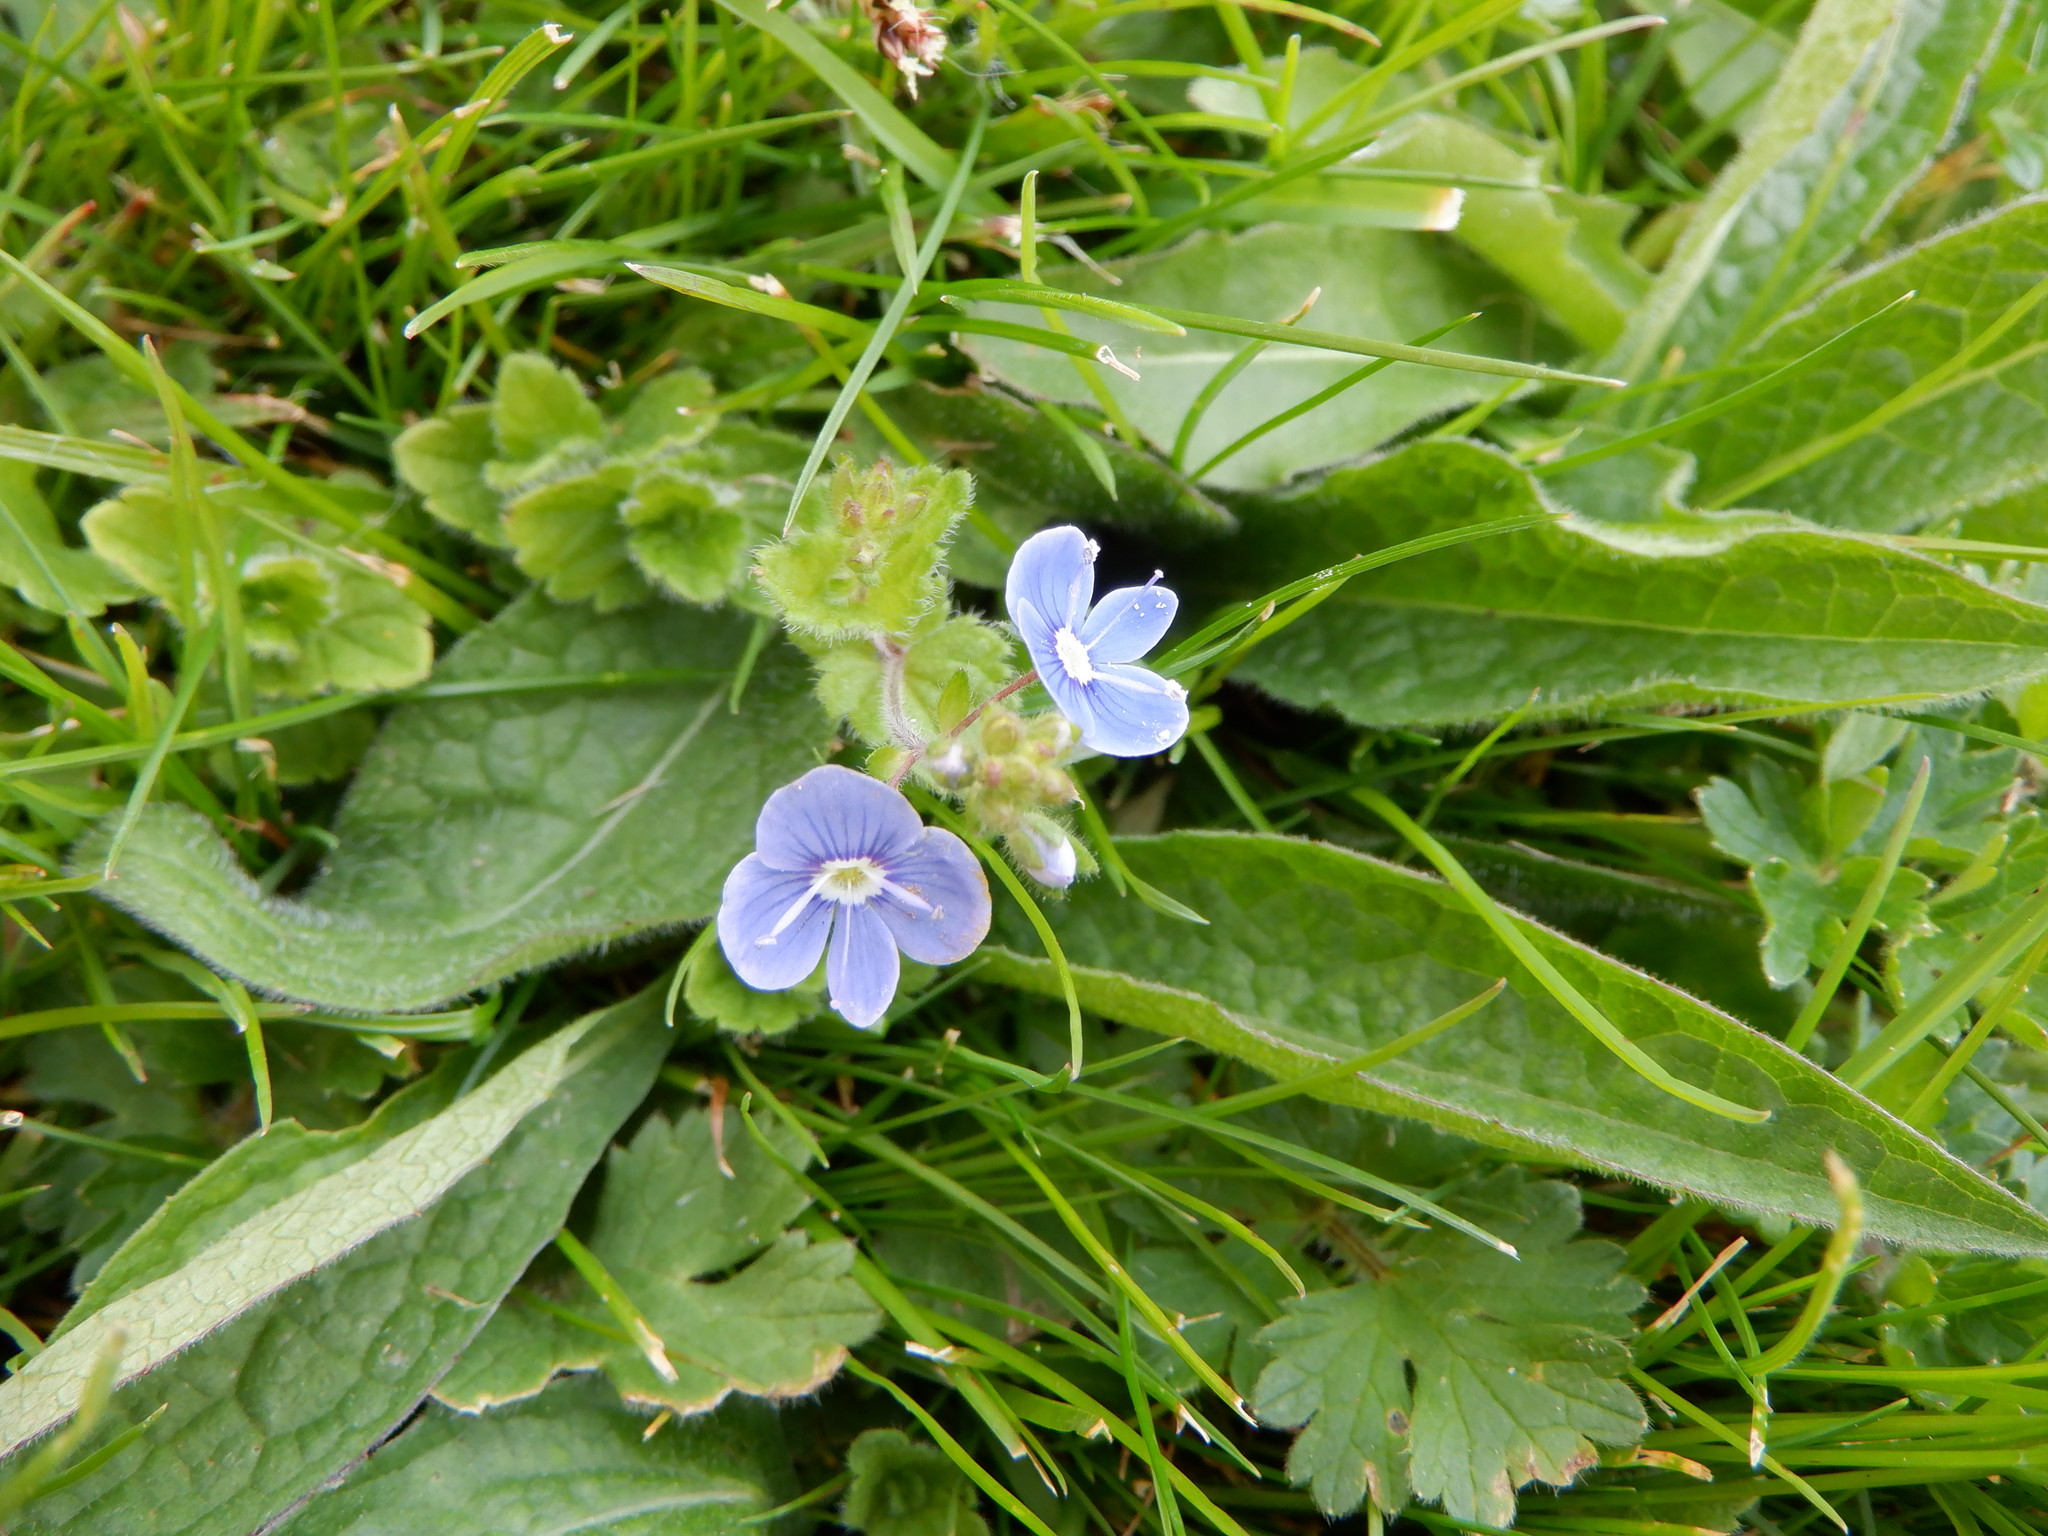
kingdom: Plantae
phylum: Tracheophyta
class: Magnoliopsida
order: Lamiales
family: Plantaginaceae
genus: Veronica
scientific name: Veronica chamaedrys
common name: Germander speedwell
